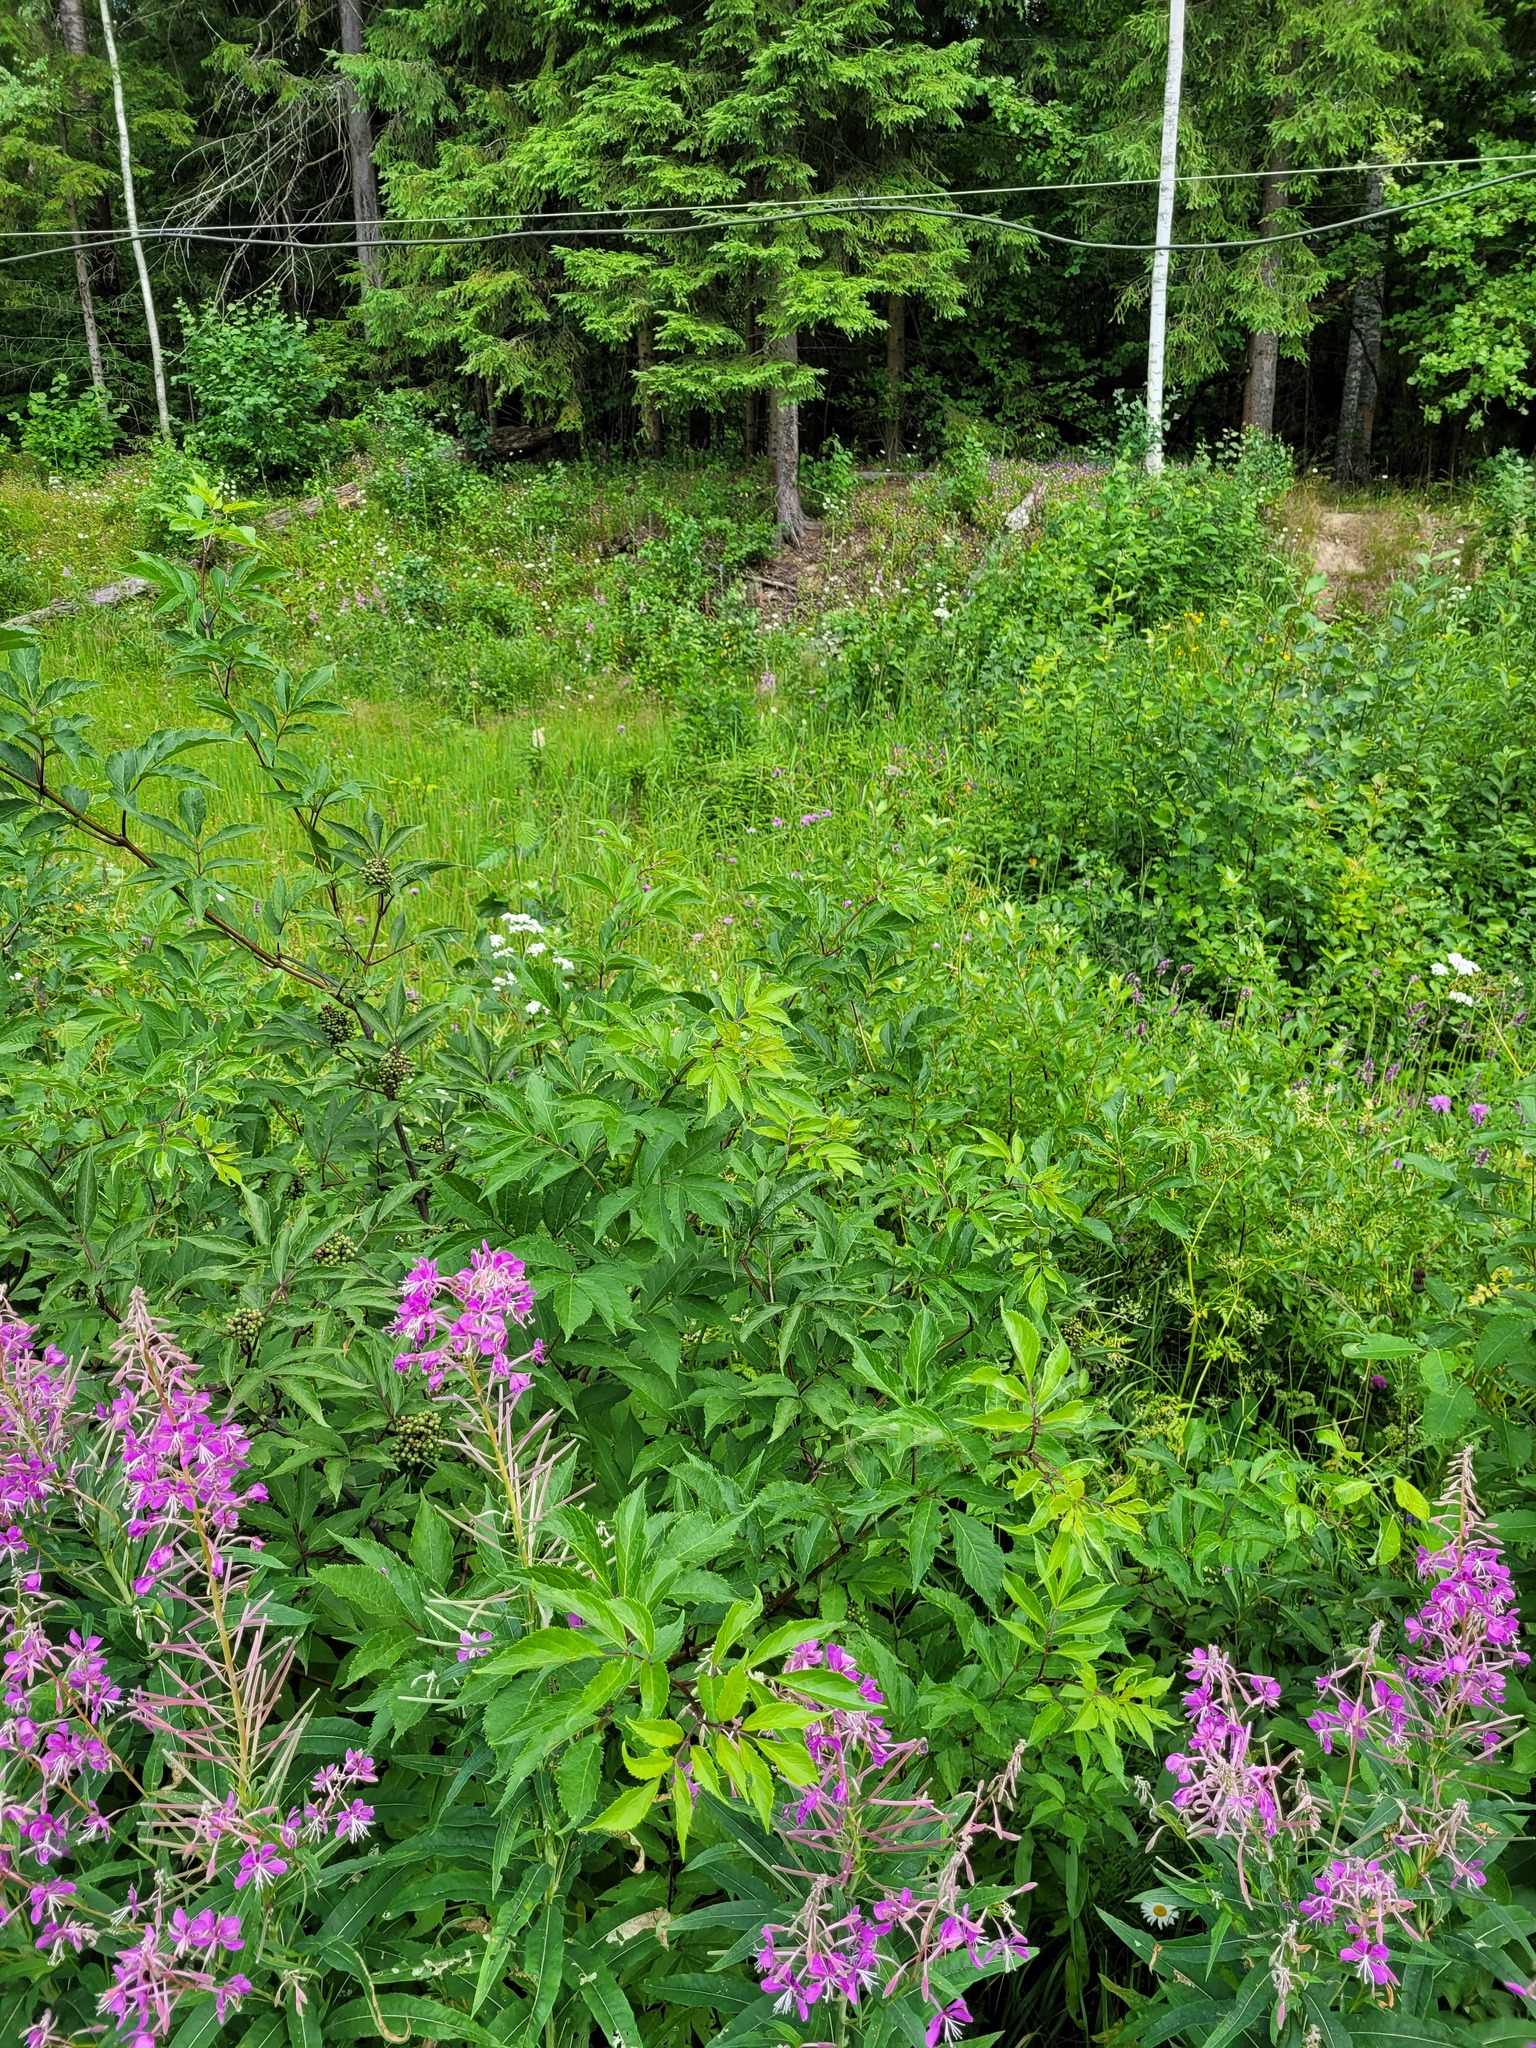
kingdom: Plantae
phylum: Tracheophyta
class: Magnoliopsida
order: Dipsacales
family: Viburnaceae
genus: Sambucus
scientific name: Sambucus racemosa
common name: Red-berried elder
